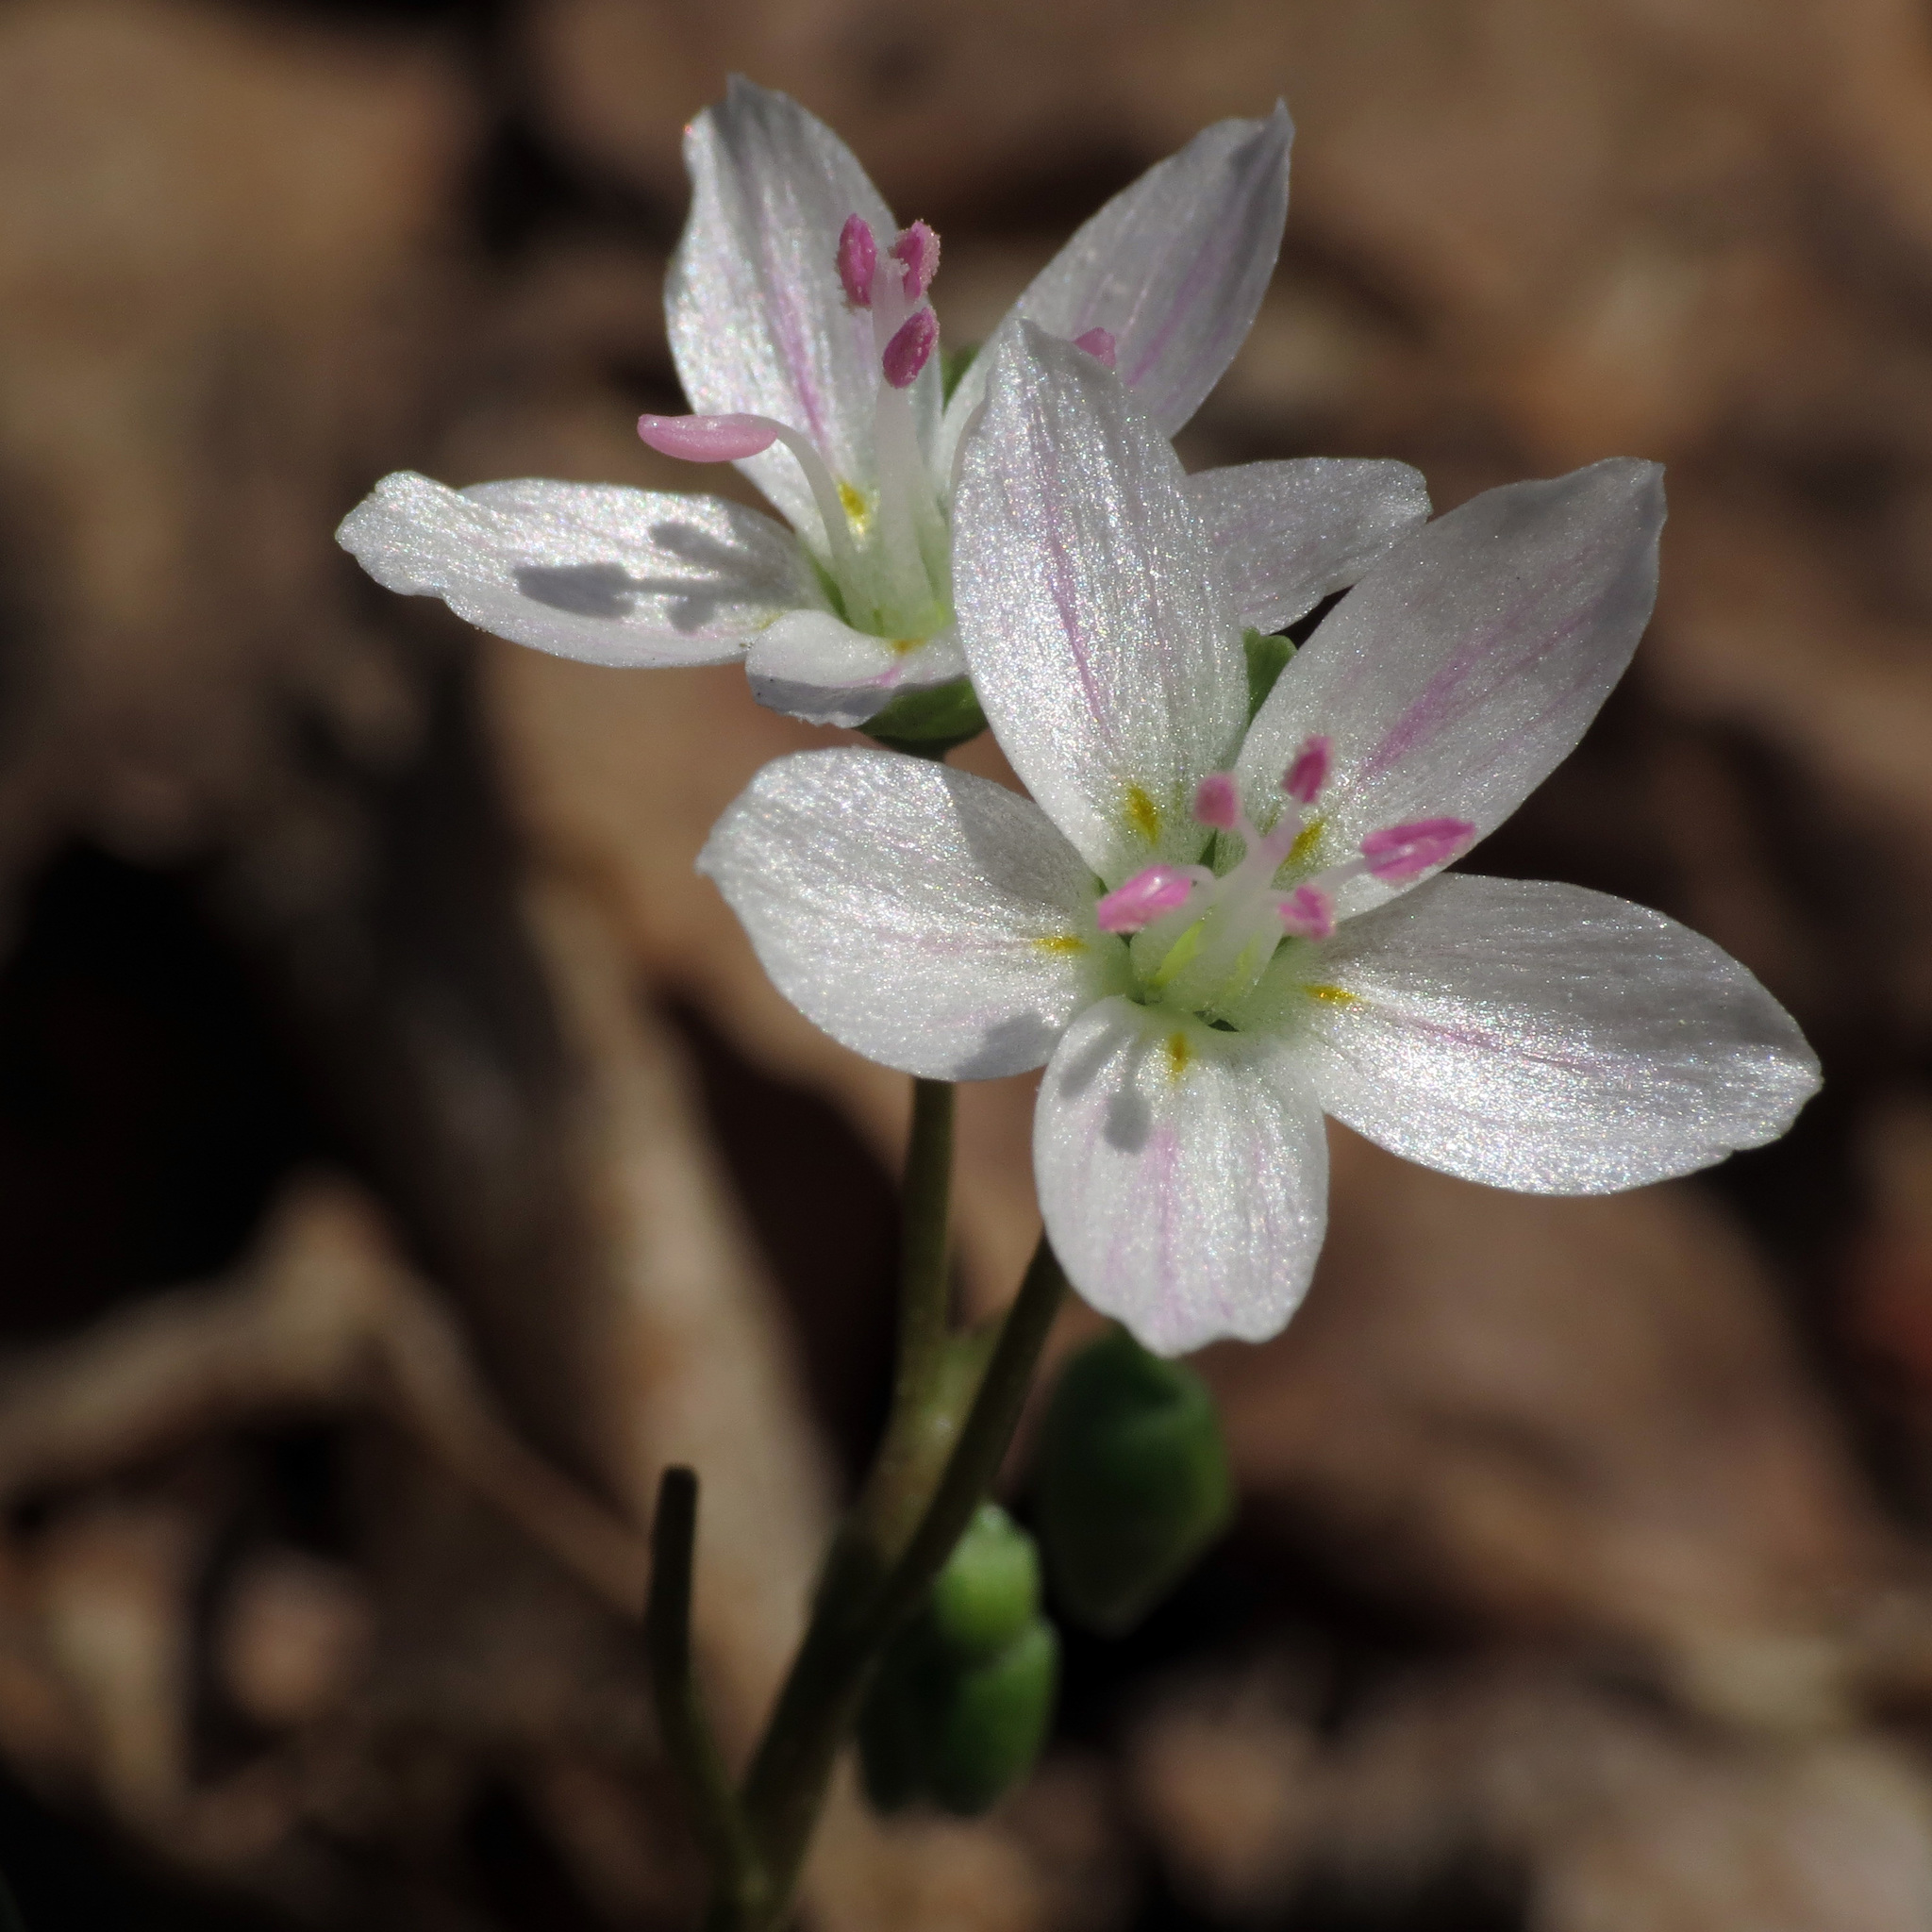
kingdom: Plantae
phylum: Tracheophyta
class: Magnoliopsida
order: Caryophyllales
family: Montiaceae
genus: Claytonia
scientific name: Claytonia virginica
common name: Virginia springbeauty
